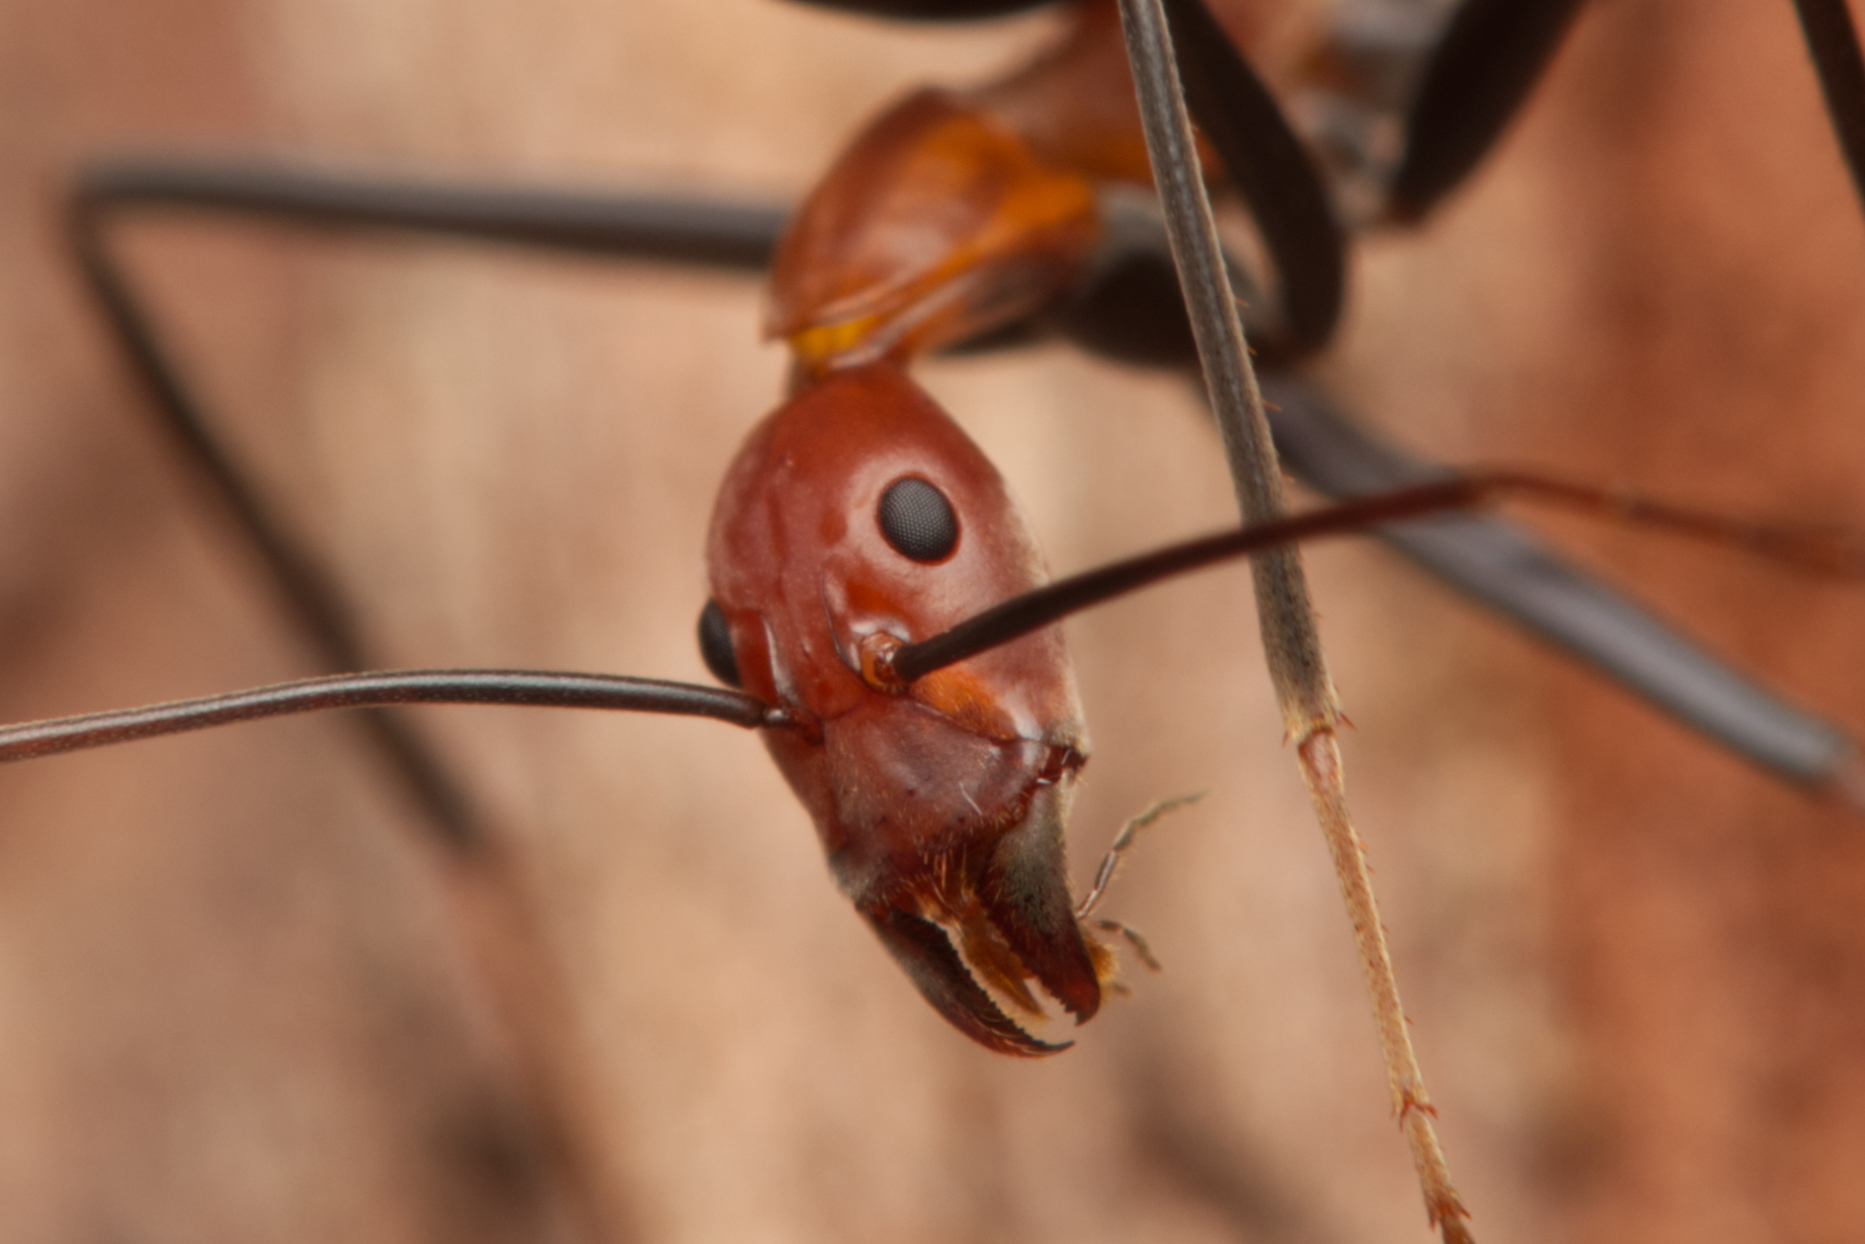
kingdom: Animalia
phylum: Arthropoda
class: Insecta
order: Hymenoptera
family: Formicidae
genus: Leptomyrmex
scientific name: Leptomyrmex rufithorax
